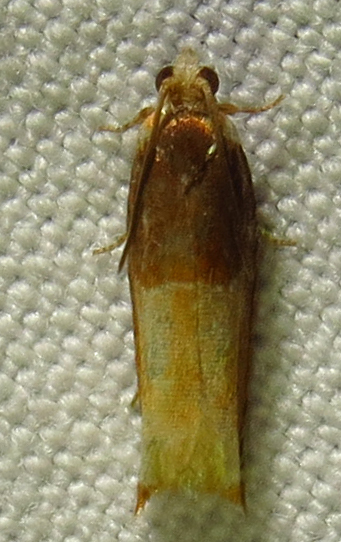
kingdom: Animalia
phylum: Arthropoda
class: Insecta
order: Lepidoptera
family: Tortricidae
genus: Ancylis
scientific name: Ancylis divisana
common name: Two-toned ancylis moth
